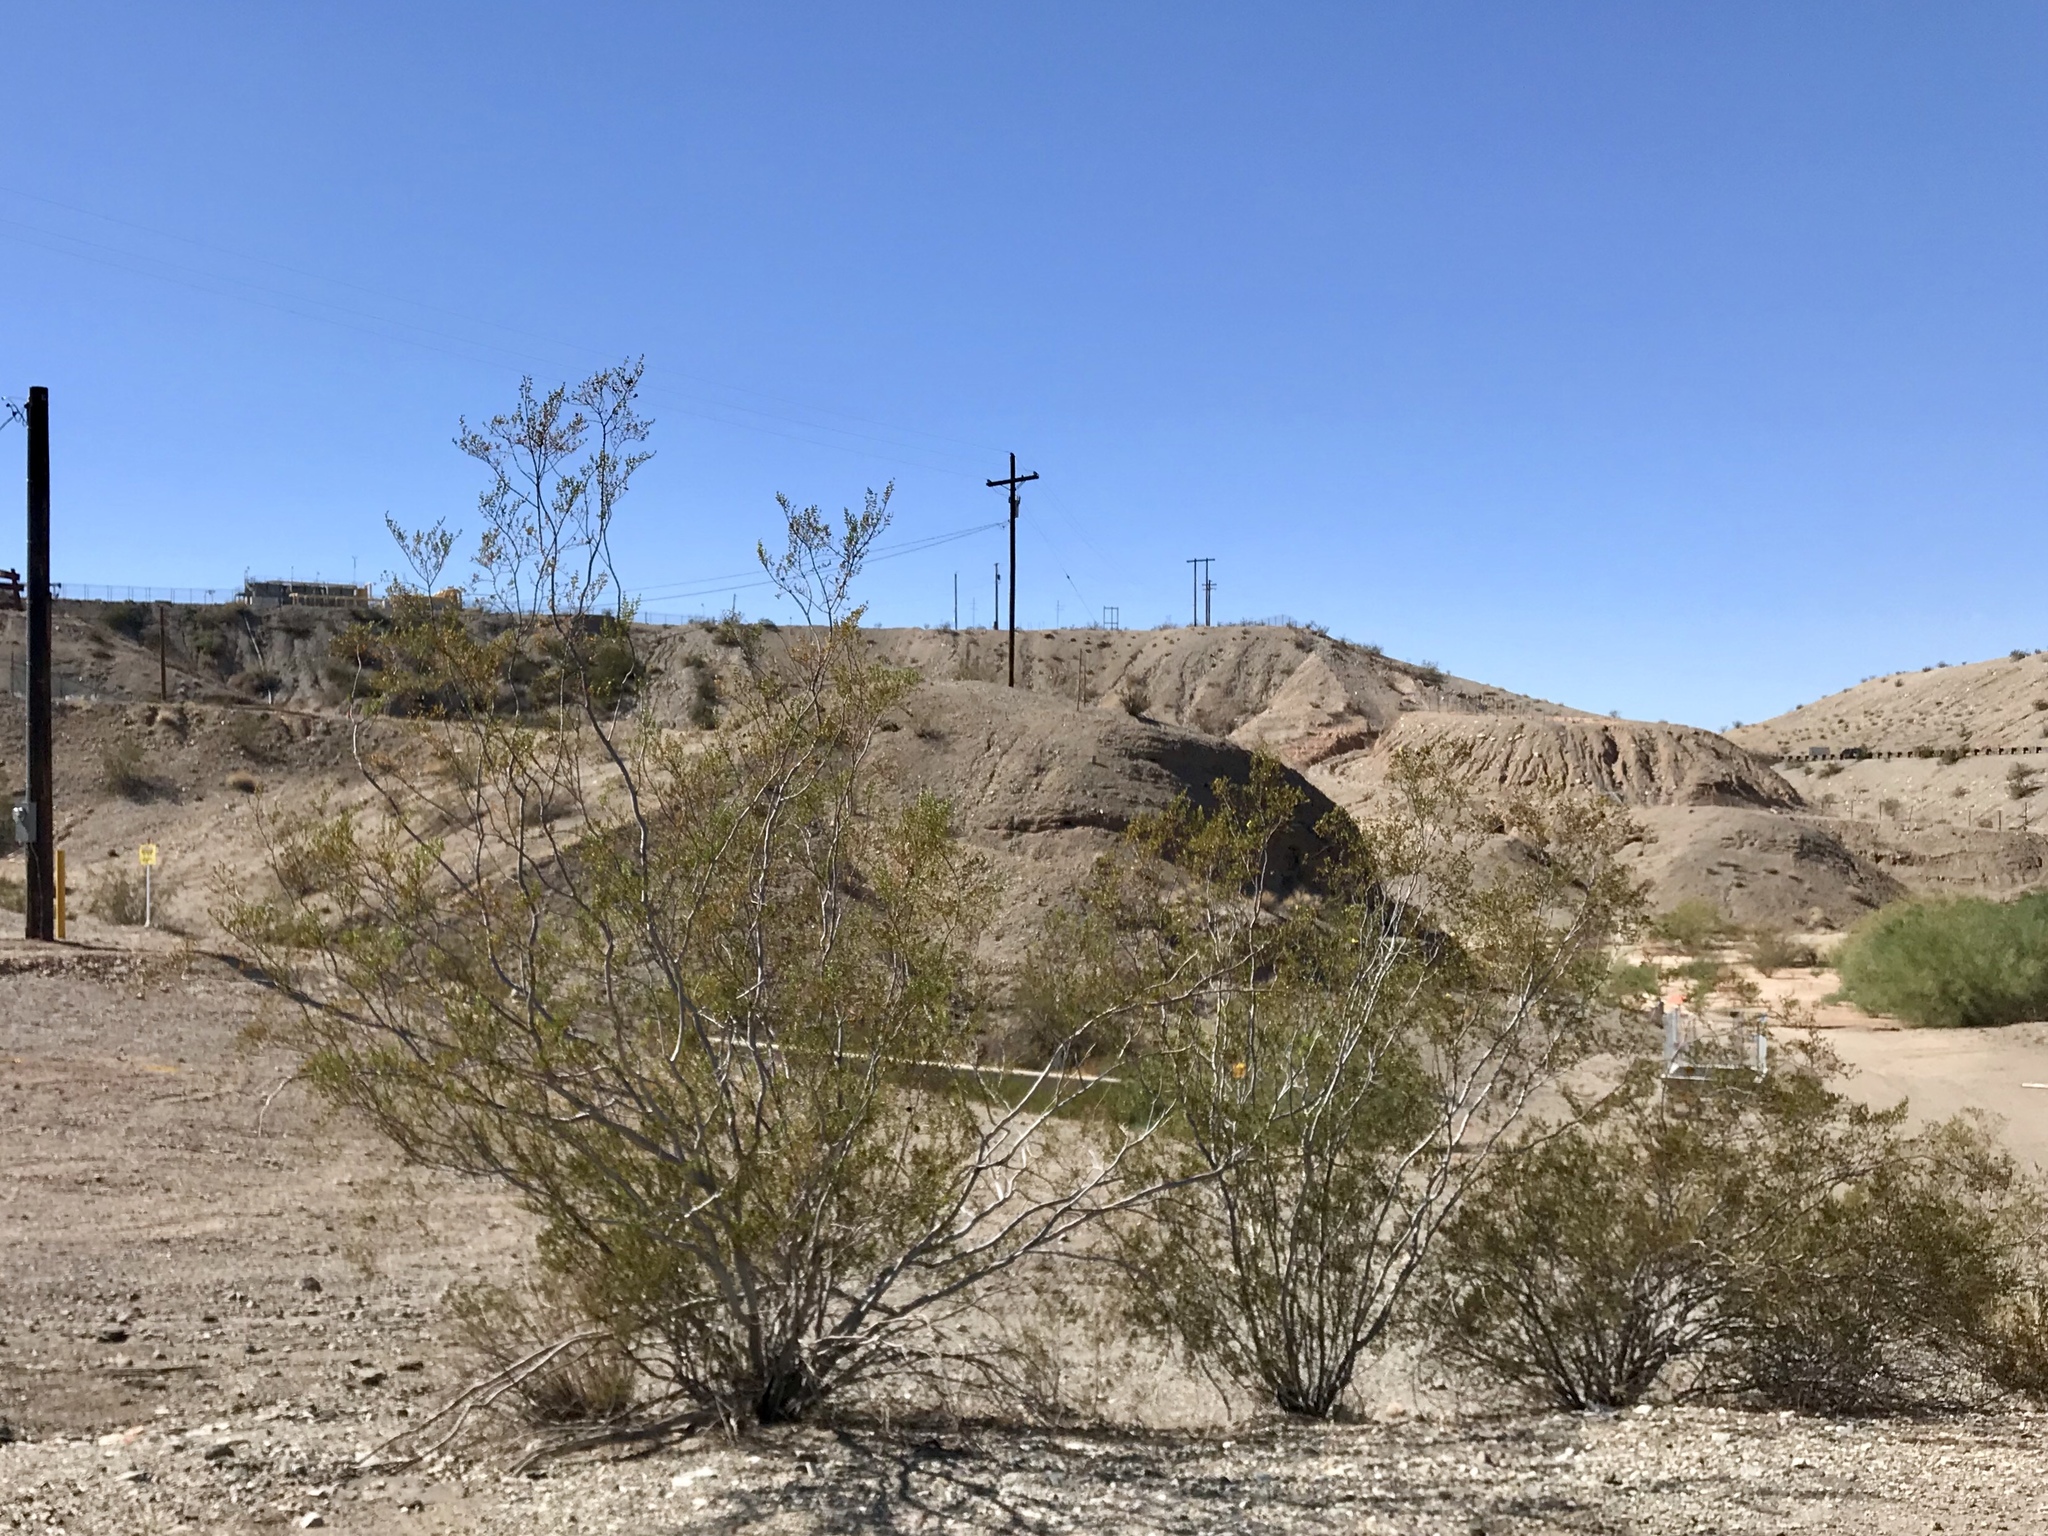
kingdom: Plantae
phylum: Tracheophyta
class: Magnoliopsida
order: Zygophyllales
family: Zygophyllaceae
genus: Larrea
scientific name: Larrea tridentata
